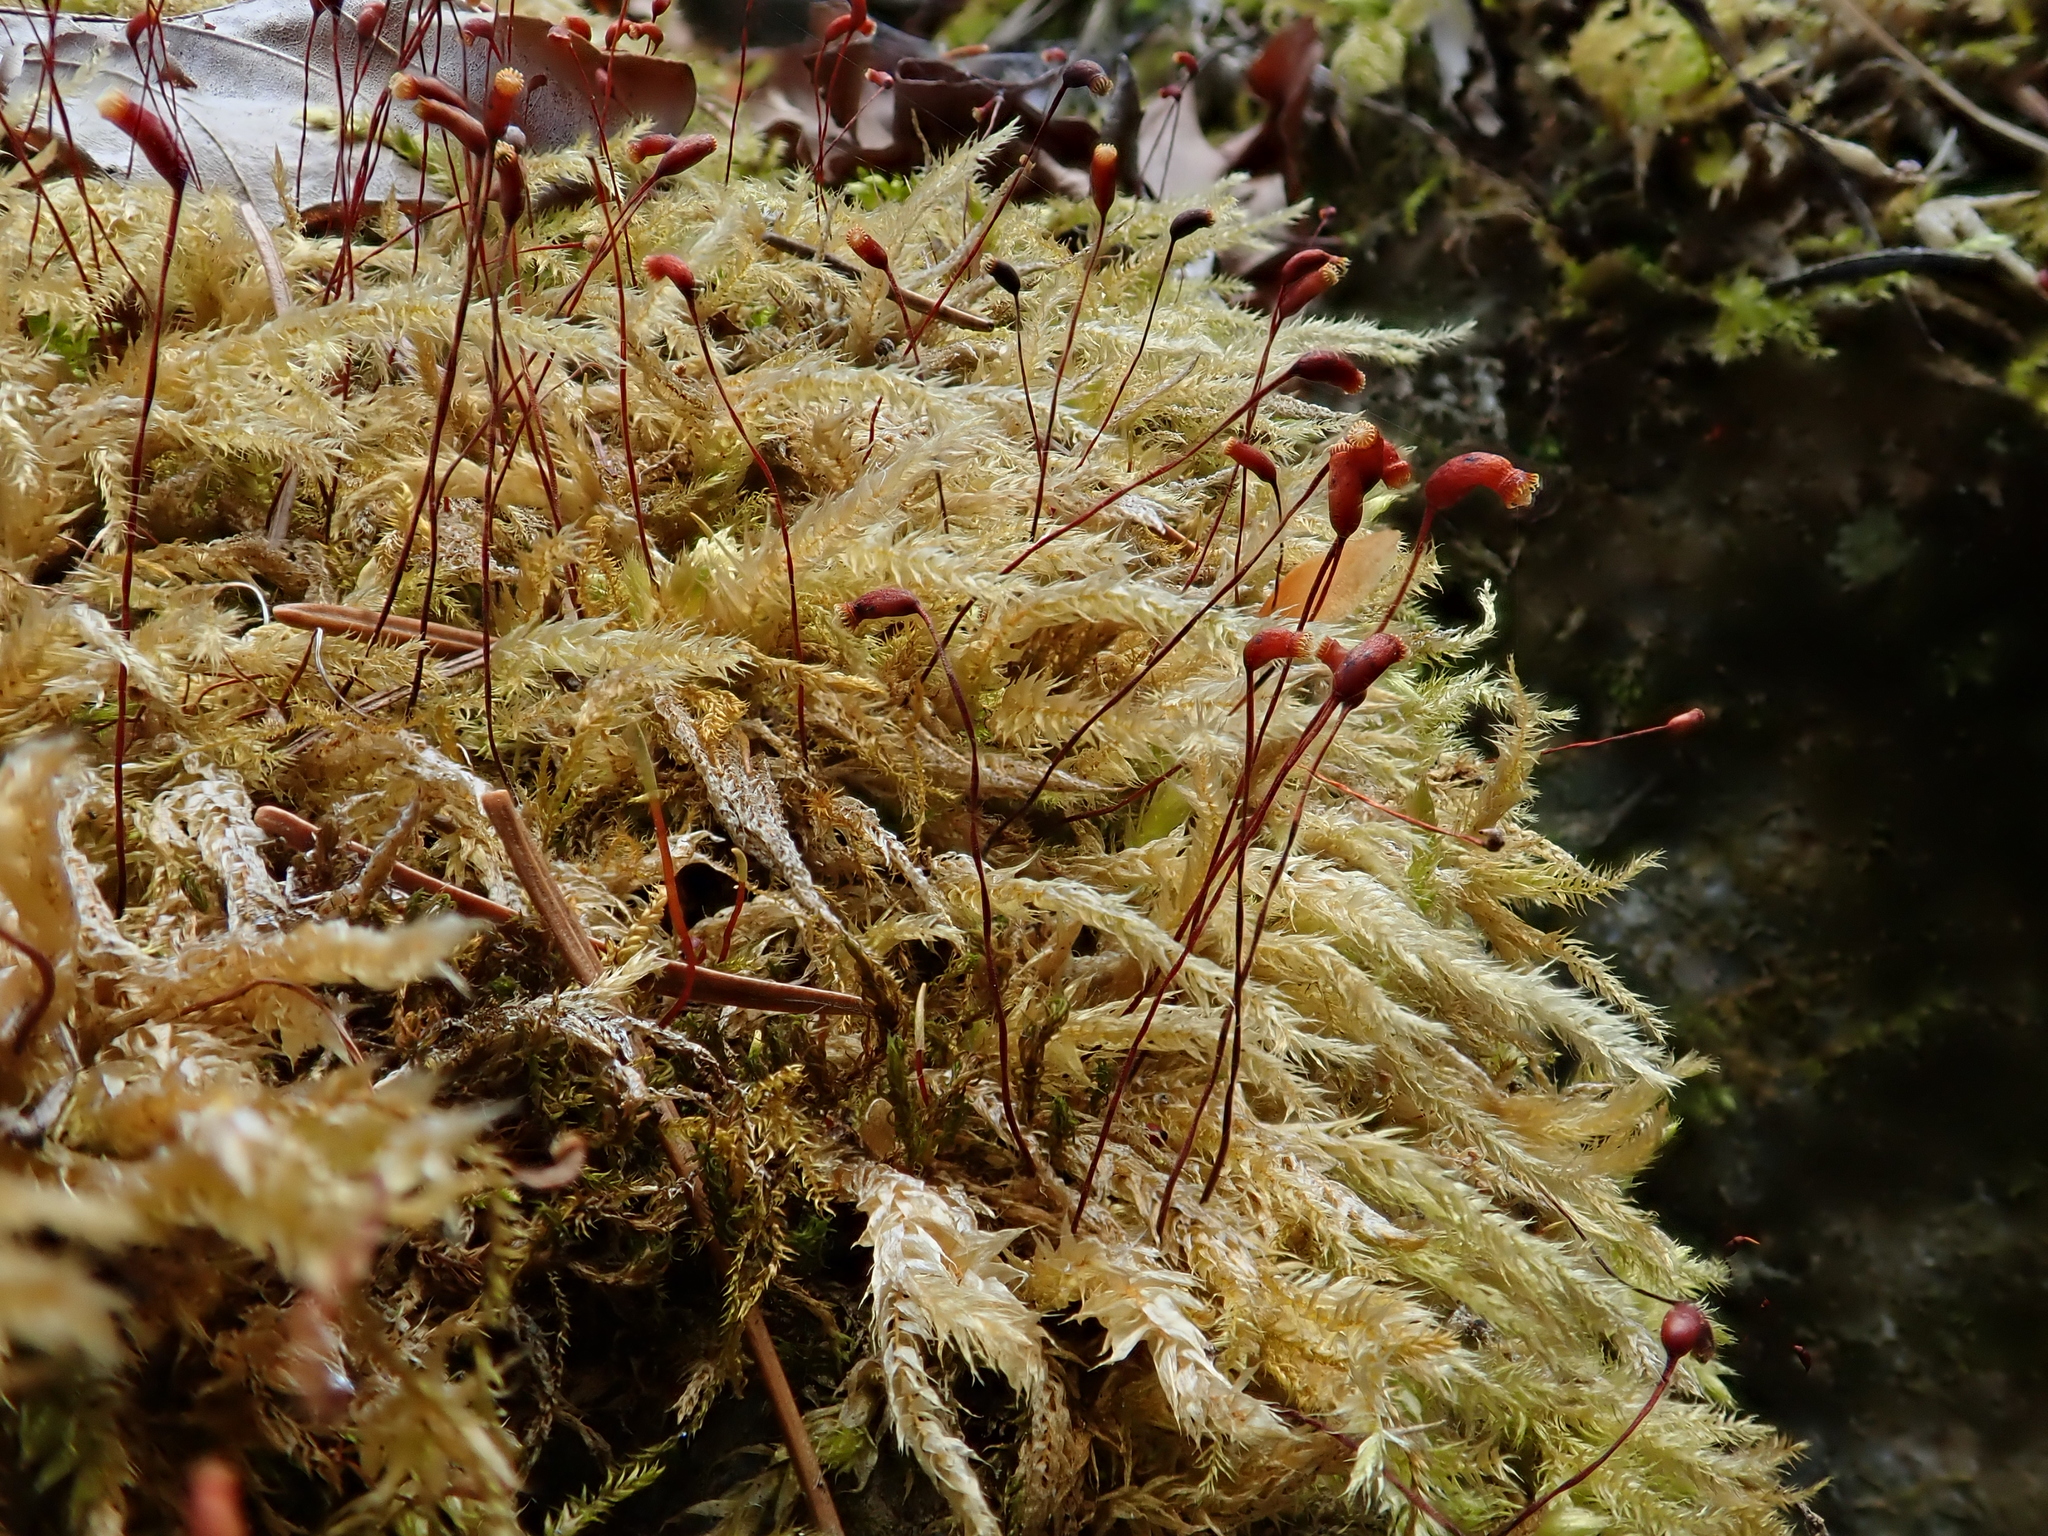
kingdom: Plantae
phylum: Bryophyta
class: Bryopsida
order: Hypnales
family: Brachytheciaceae
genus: Brachythecium
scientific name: Brachythecium rutabulum
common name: Rough-stalked feather-moss
